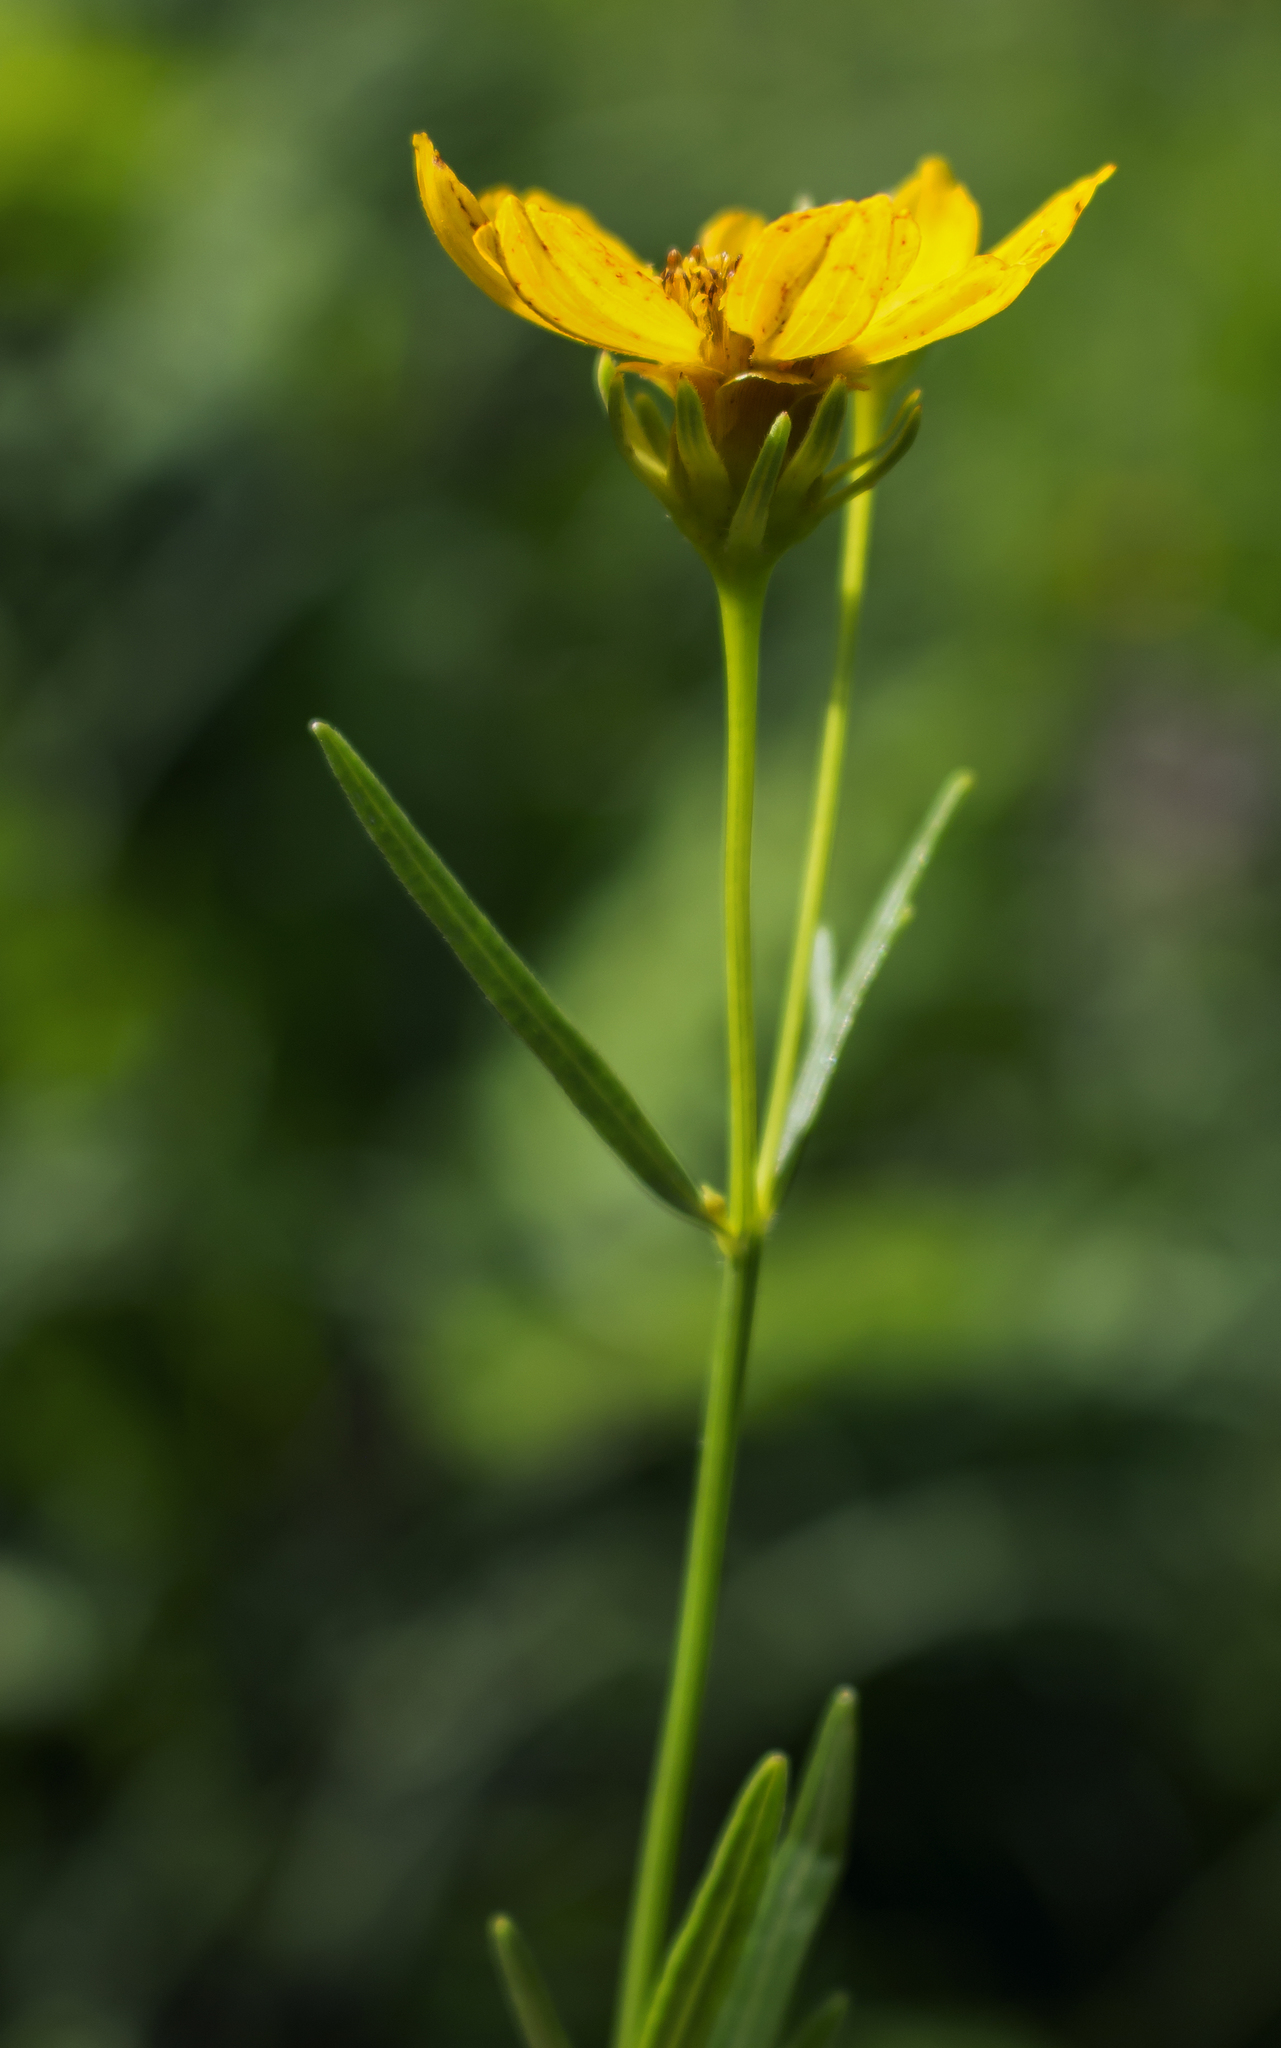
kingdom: Plantae
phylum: Tracheophyta
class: Magnoliopsida
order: Asterales
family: Asteraceae
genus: Coreopsis
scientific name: Coreopsis palmata
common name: Prairie coreopsis
